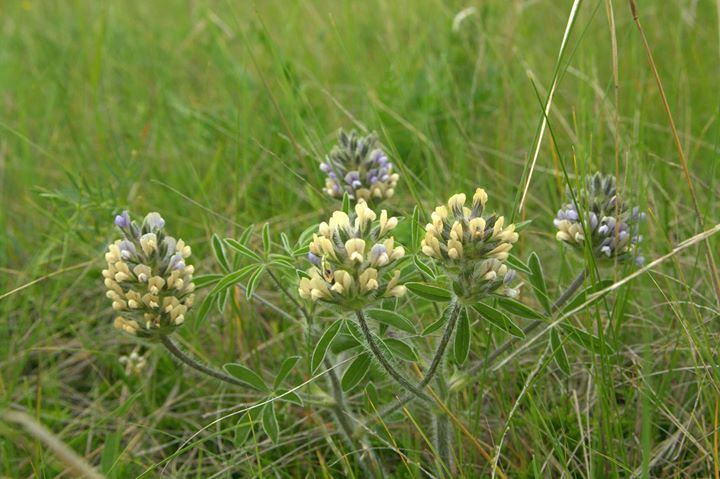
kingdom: Plantae
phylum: Tracheophyta
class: Magnoliopsida
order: Fabales
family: Fabaceae
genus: Pediomelum
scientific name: Pediomelum esculentum
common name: Indian-turnip
